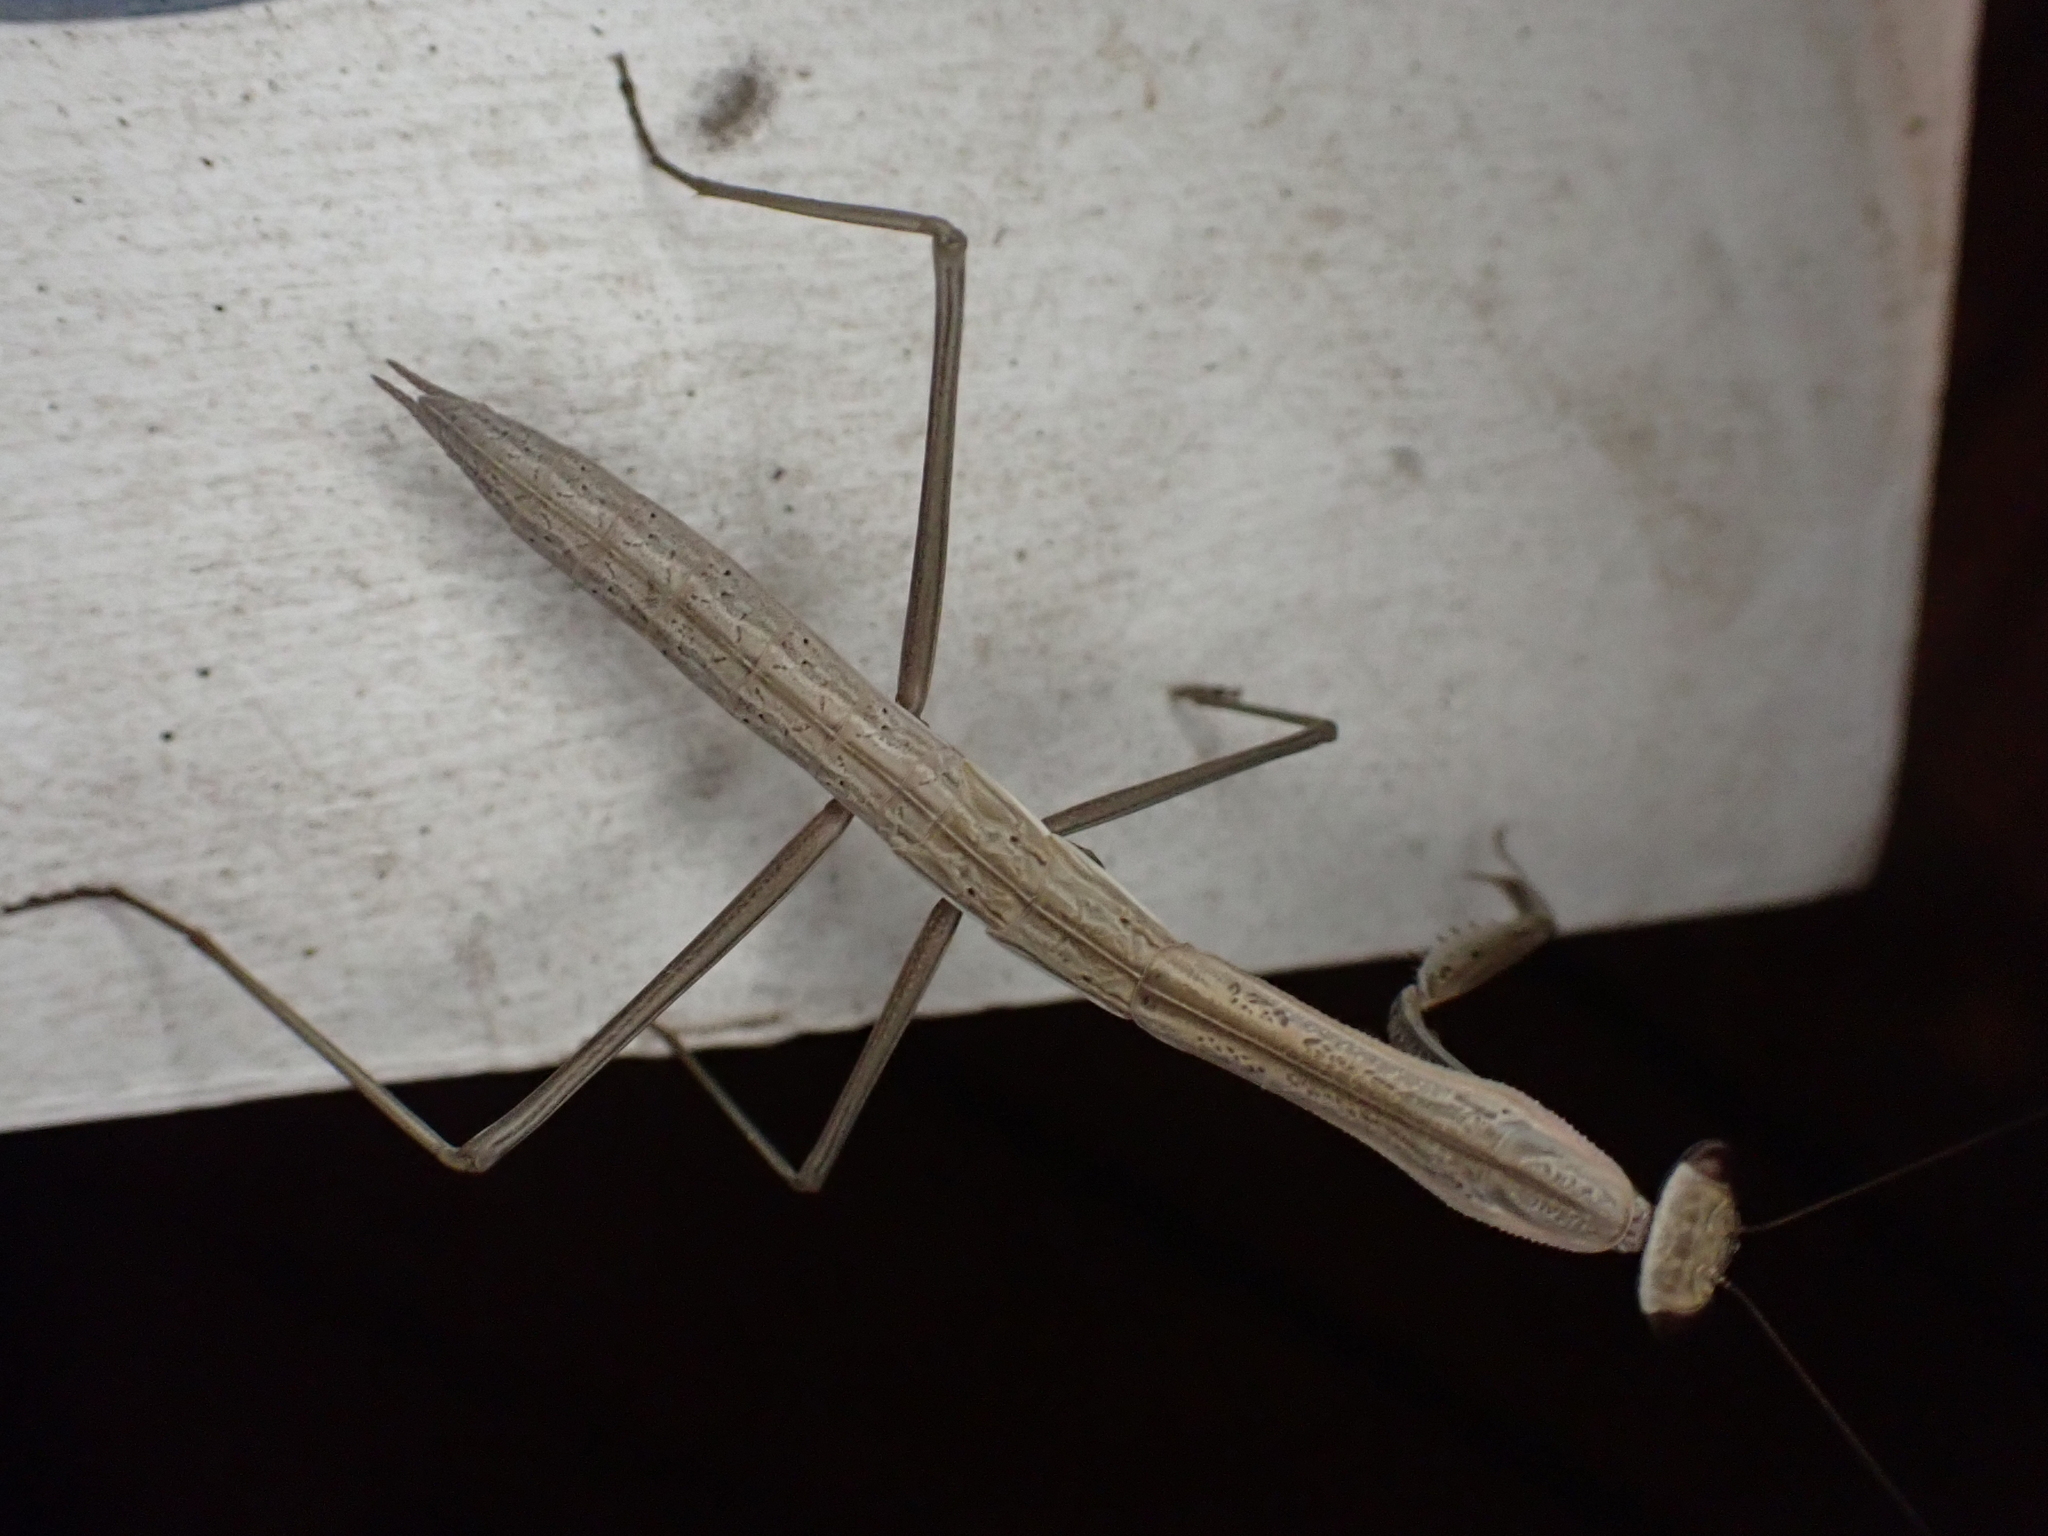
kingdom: Animalia
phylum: Arthropoda
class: Insecta
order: Mantodea
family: Mantidae
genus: Tenodera
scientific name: Tenodera sinensis
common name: Chinese mantis
